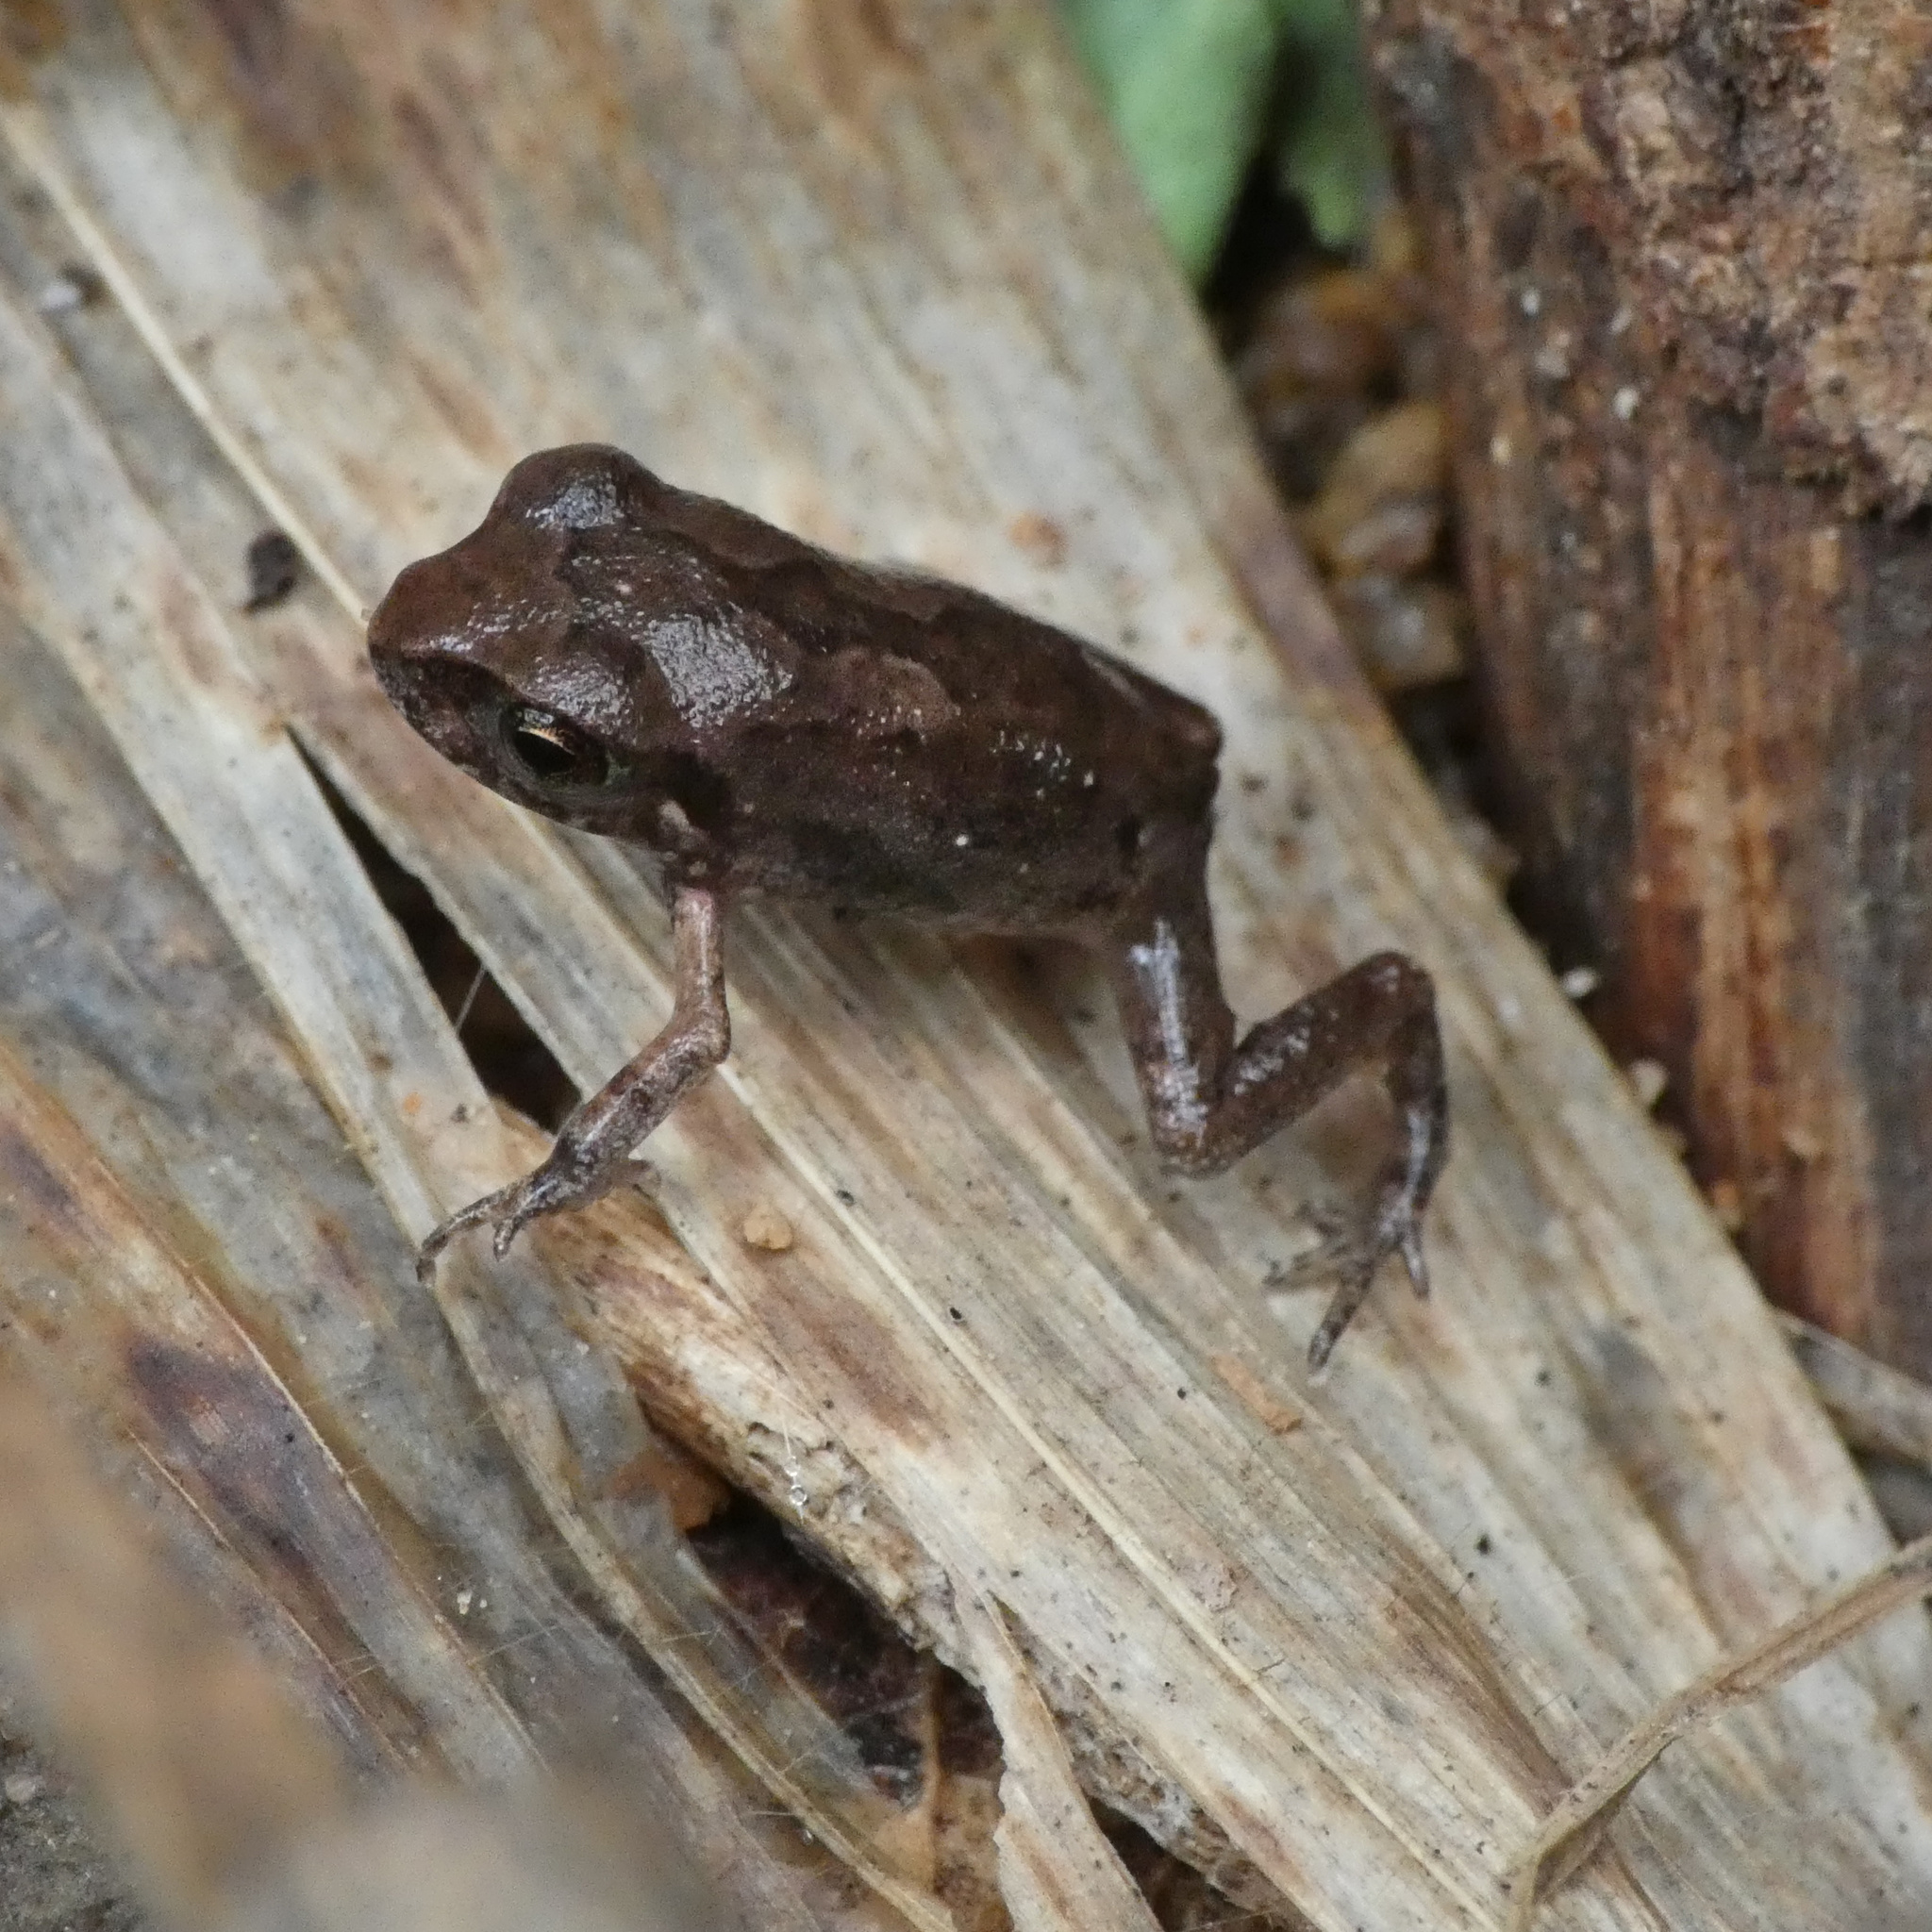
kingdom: Animalia
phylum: Chordata
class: Amphibia
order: Anura
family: Arthroleptidae
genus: Arthroleptis
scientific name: Arthroleptis stenodactylus
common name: Dune squeaker
